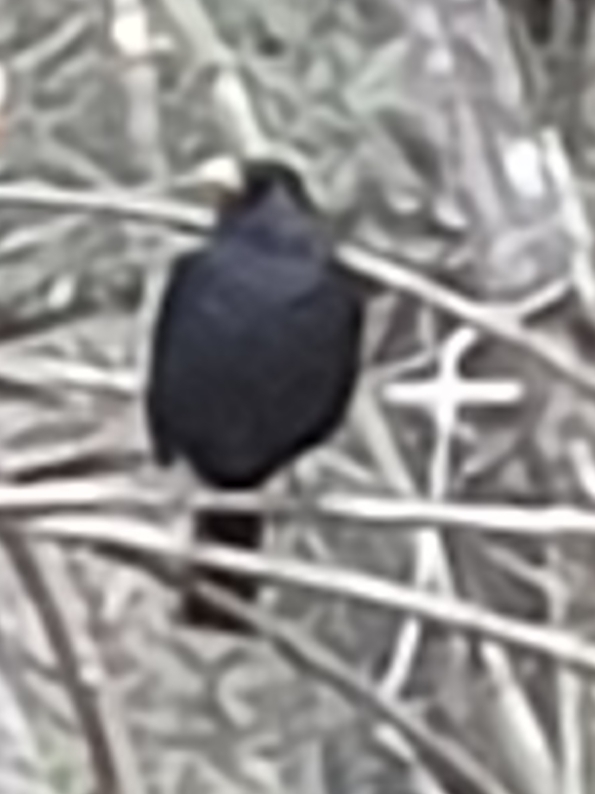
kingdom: Animalia
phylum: Chordata
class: Aves
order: Passeriformes
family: Turdidae
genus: Turdus
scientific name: Turdus merula
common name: Common blackbird
